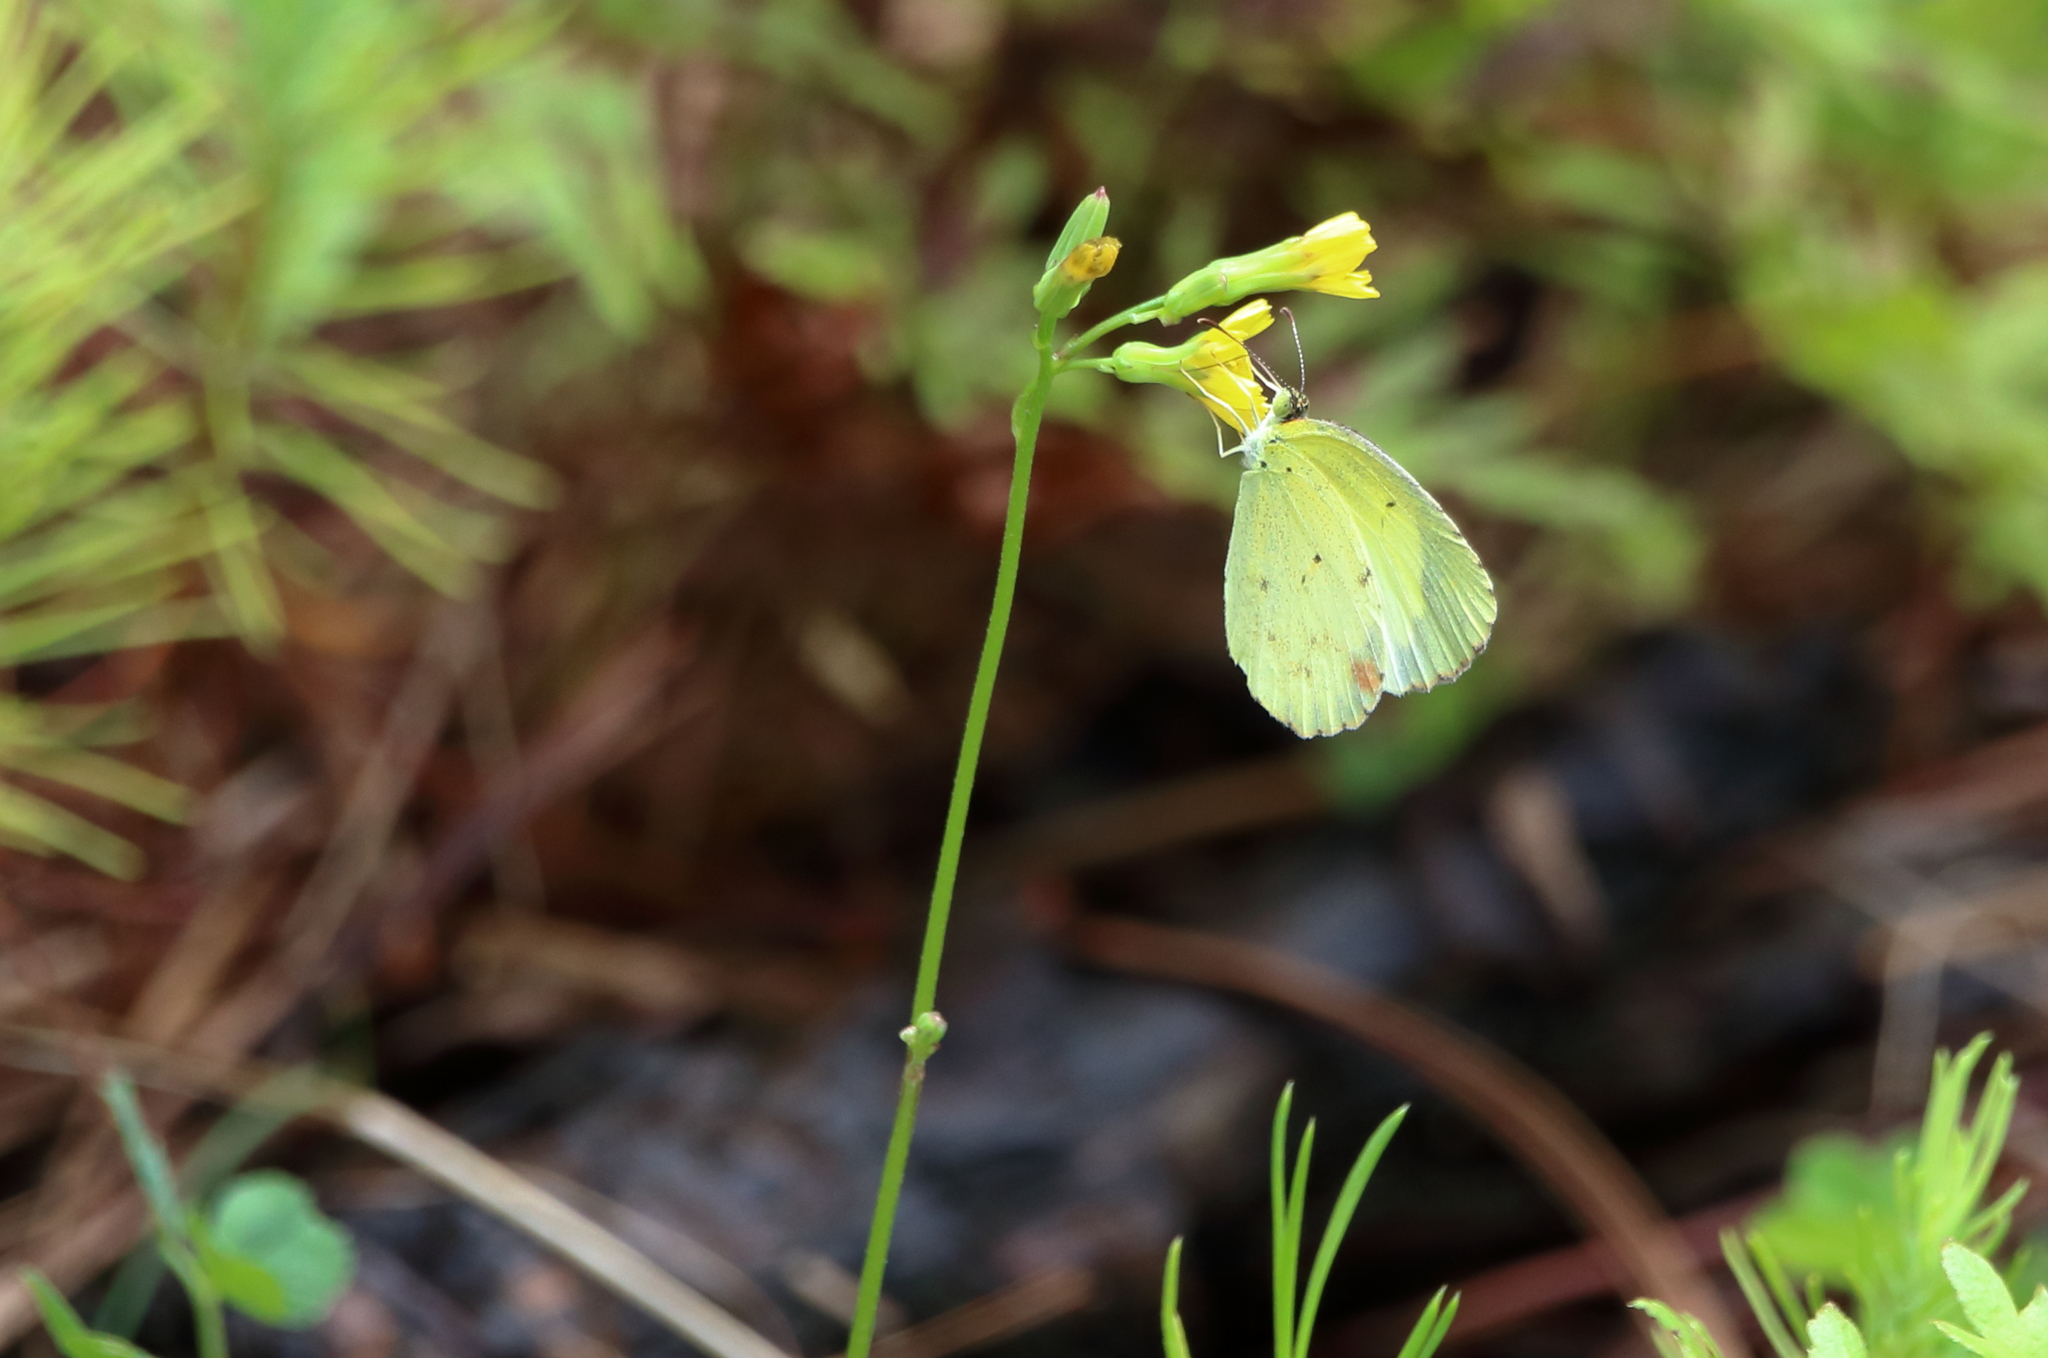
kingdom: Animalia
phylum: Arthropoda
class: Insecta
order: Lepidoptera
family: Pieridae
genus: Pyrisitia
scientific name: Pyrisitia lisa
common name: Little yellow
